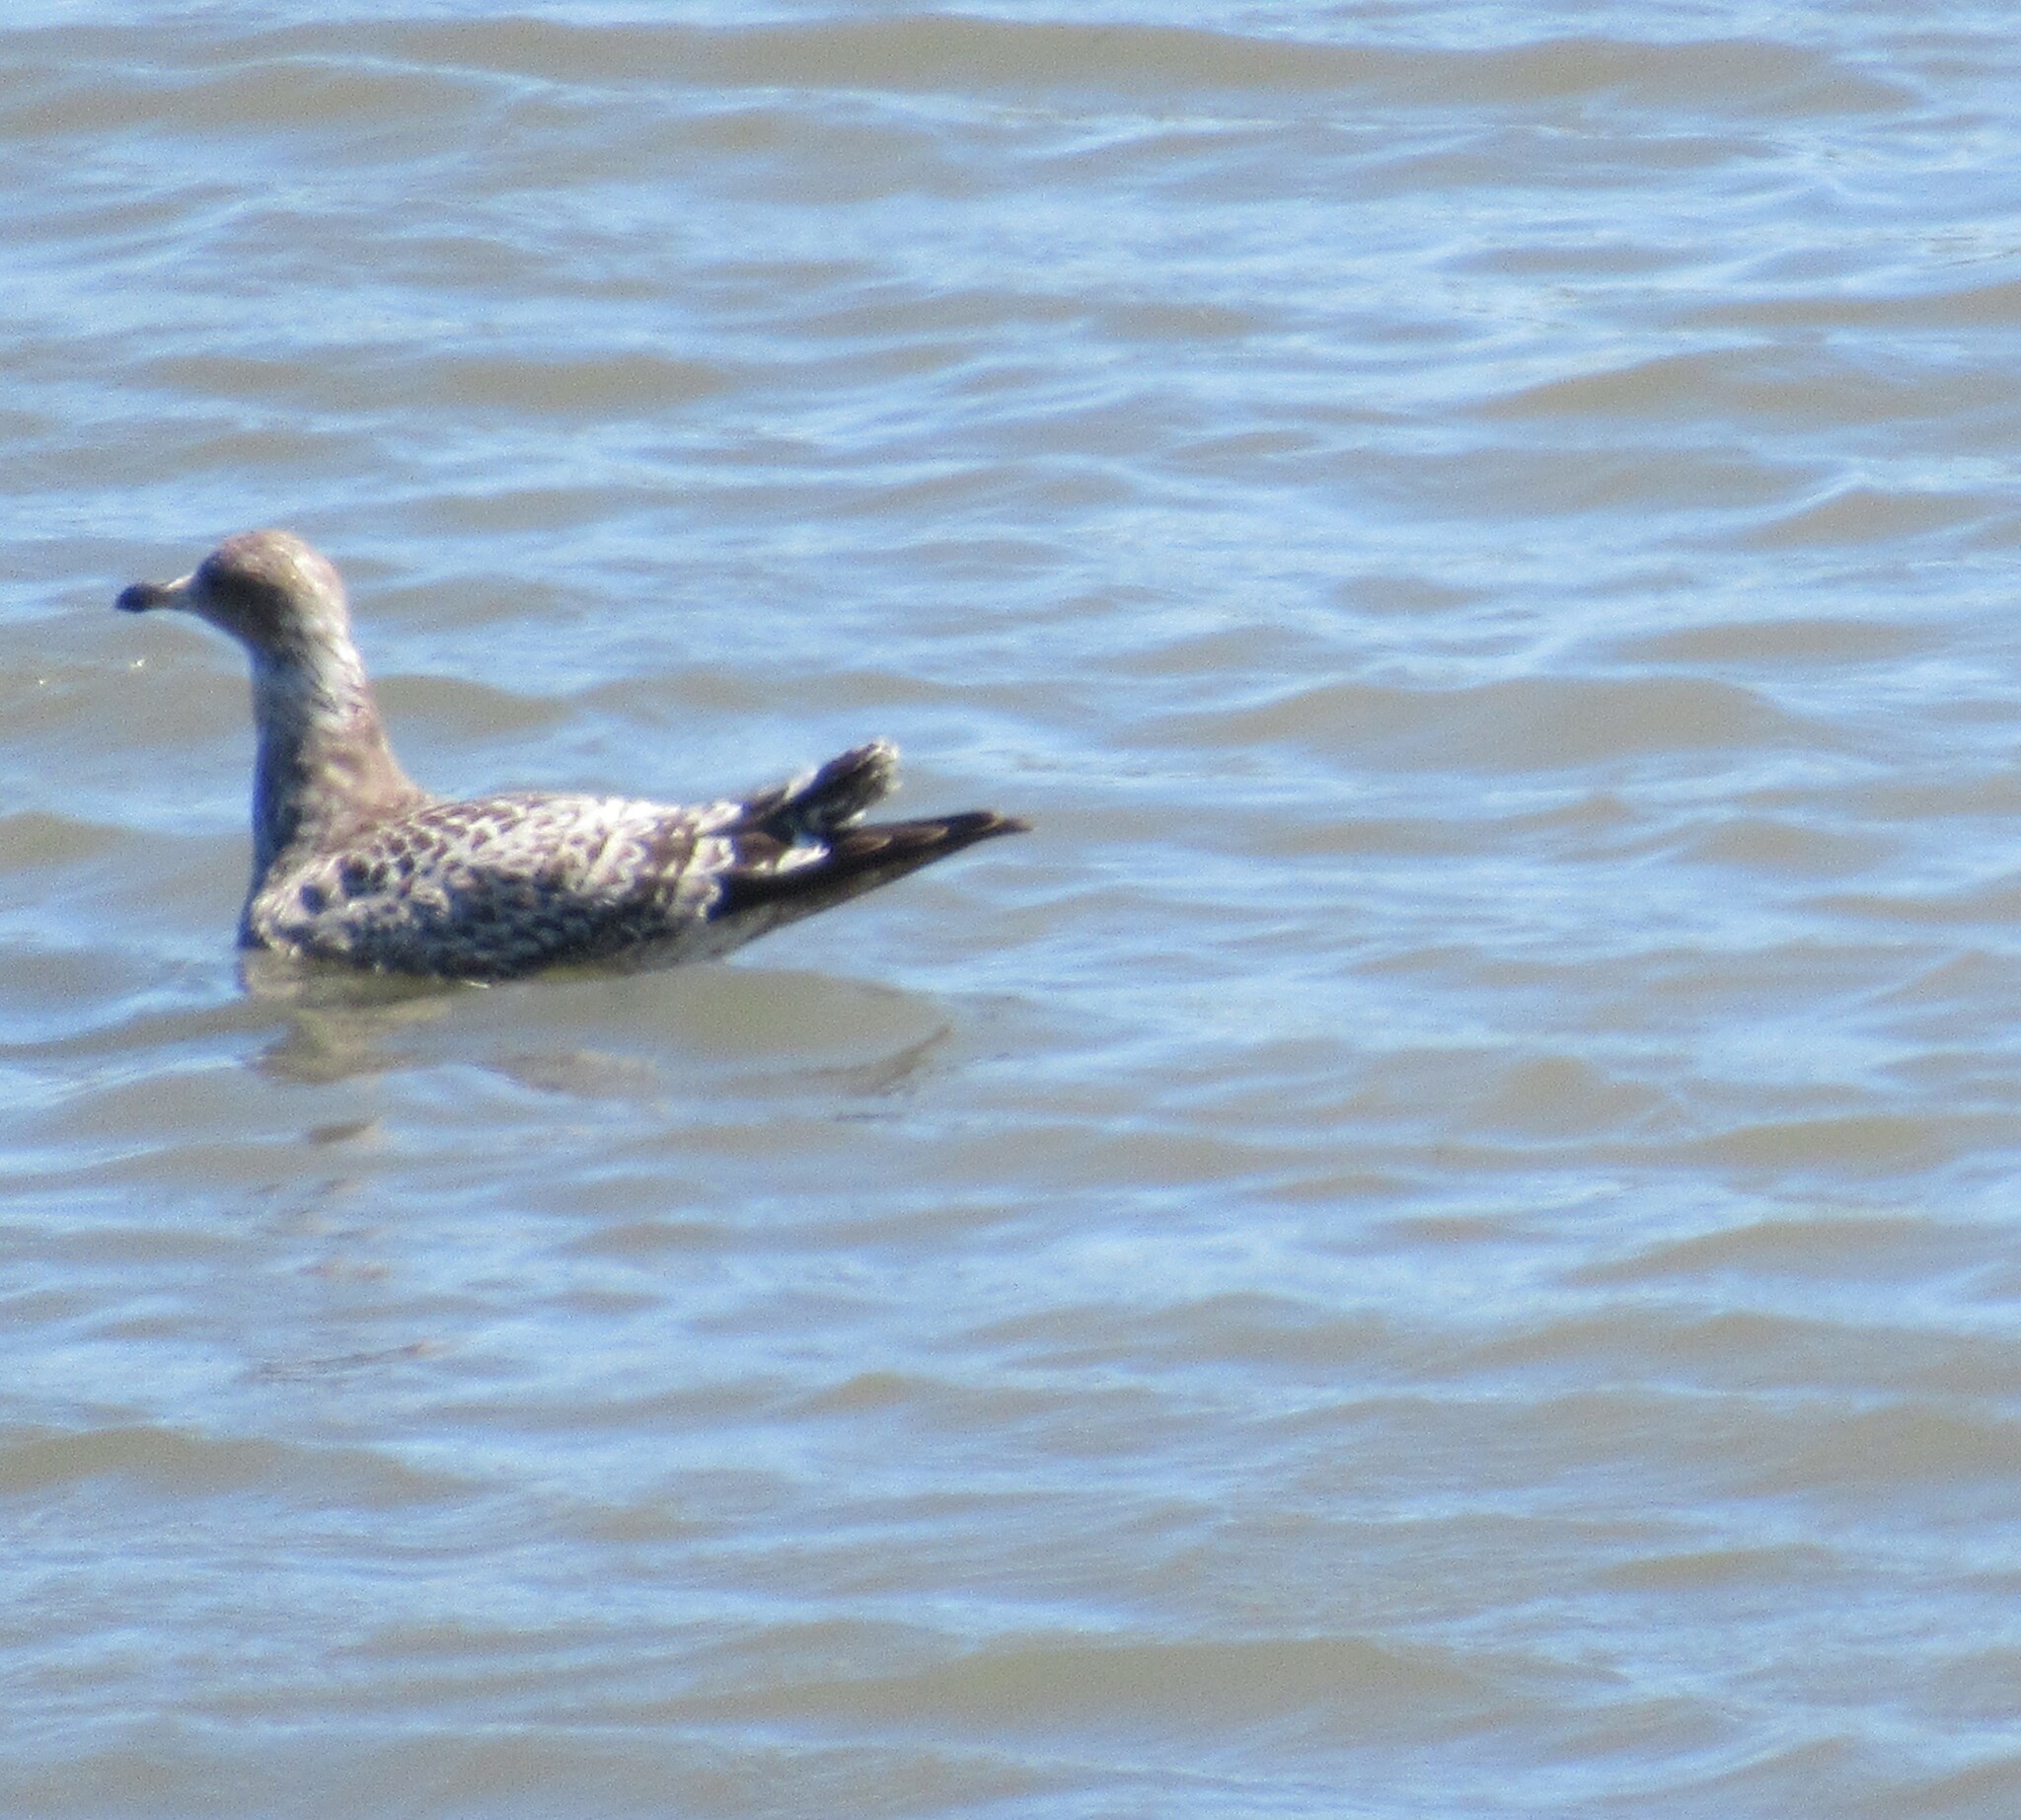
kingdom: Animalia
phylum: Chordata
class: Aves
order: Charadriiformes
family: Laridae
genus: Larus
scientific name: Larus californicus
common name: California gull
